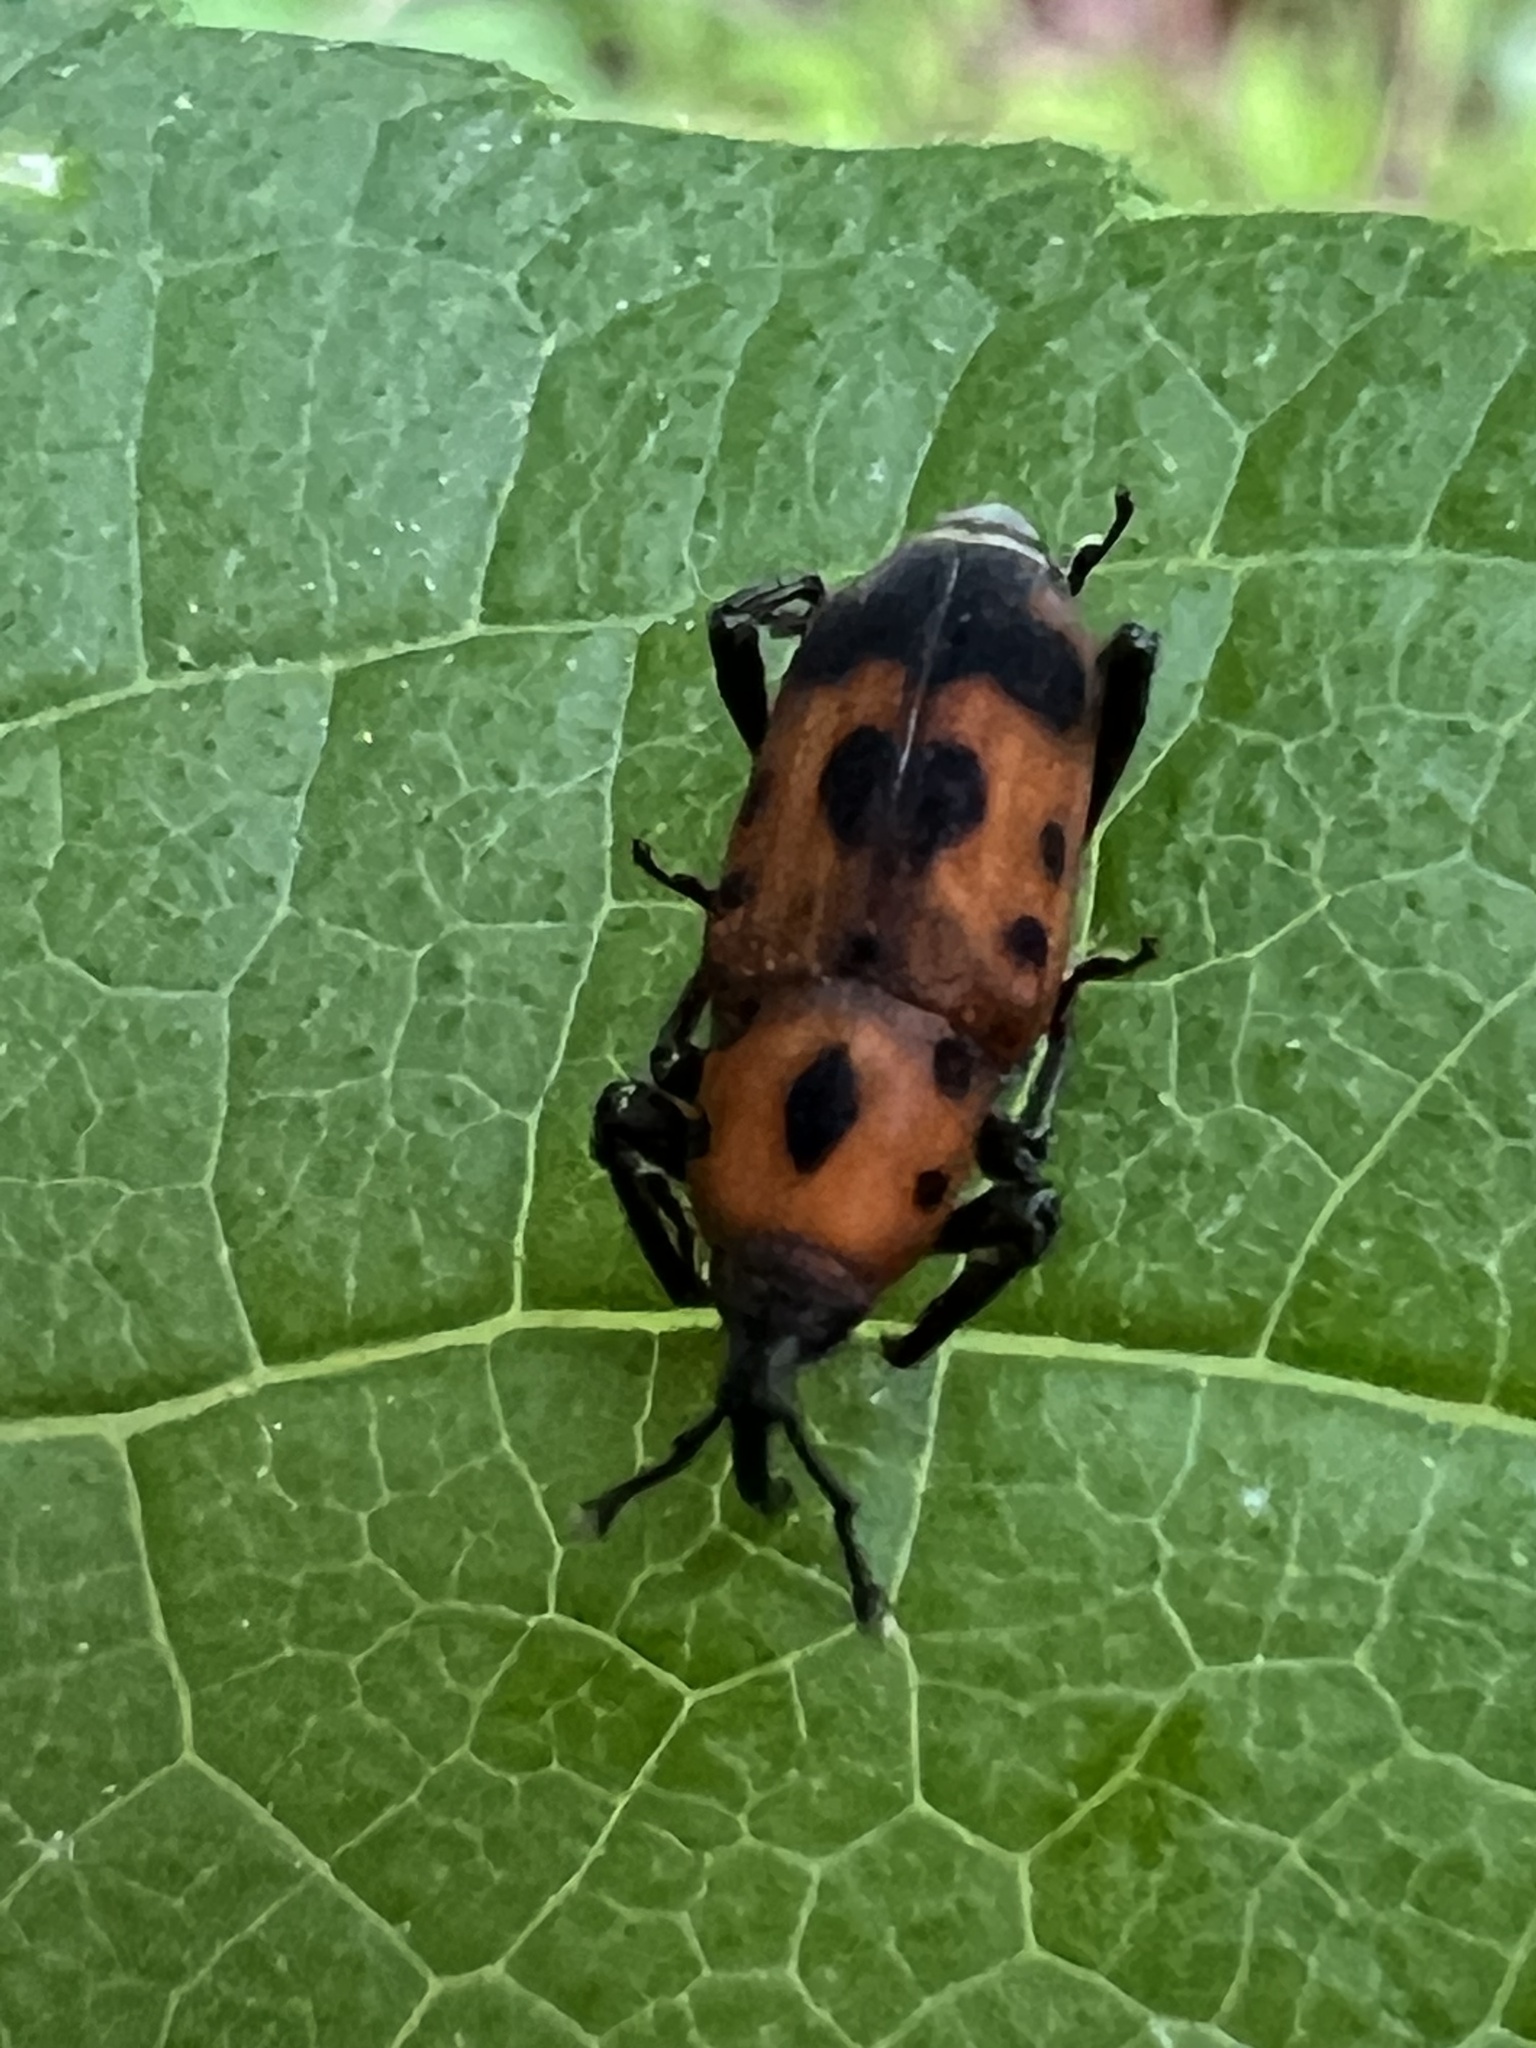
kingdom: Animalia
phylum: Arthropoda
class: Insecta
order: Coleoptera
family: Dryophthoridae
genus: Rhodobaenus
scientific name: Rhodobaenus quinquepunctatus
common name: Cocklebur weevil
